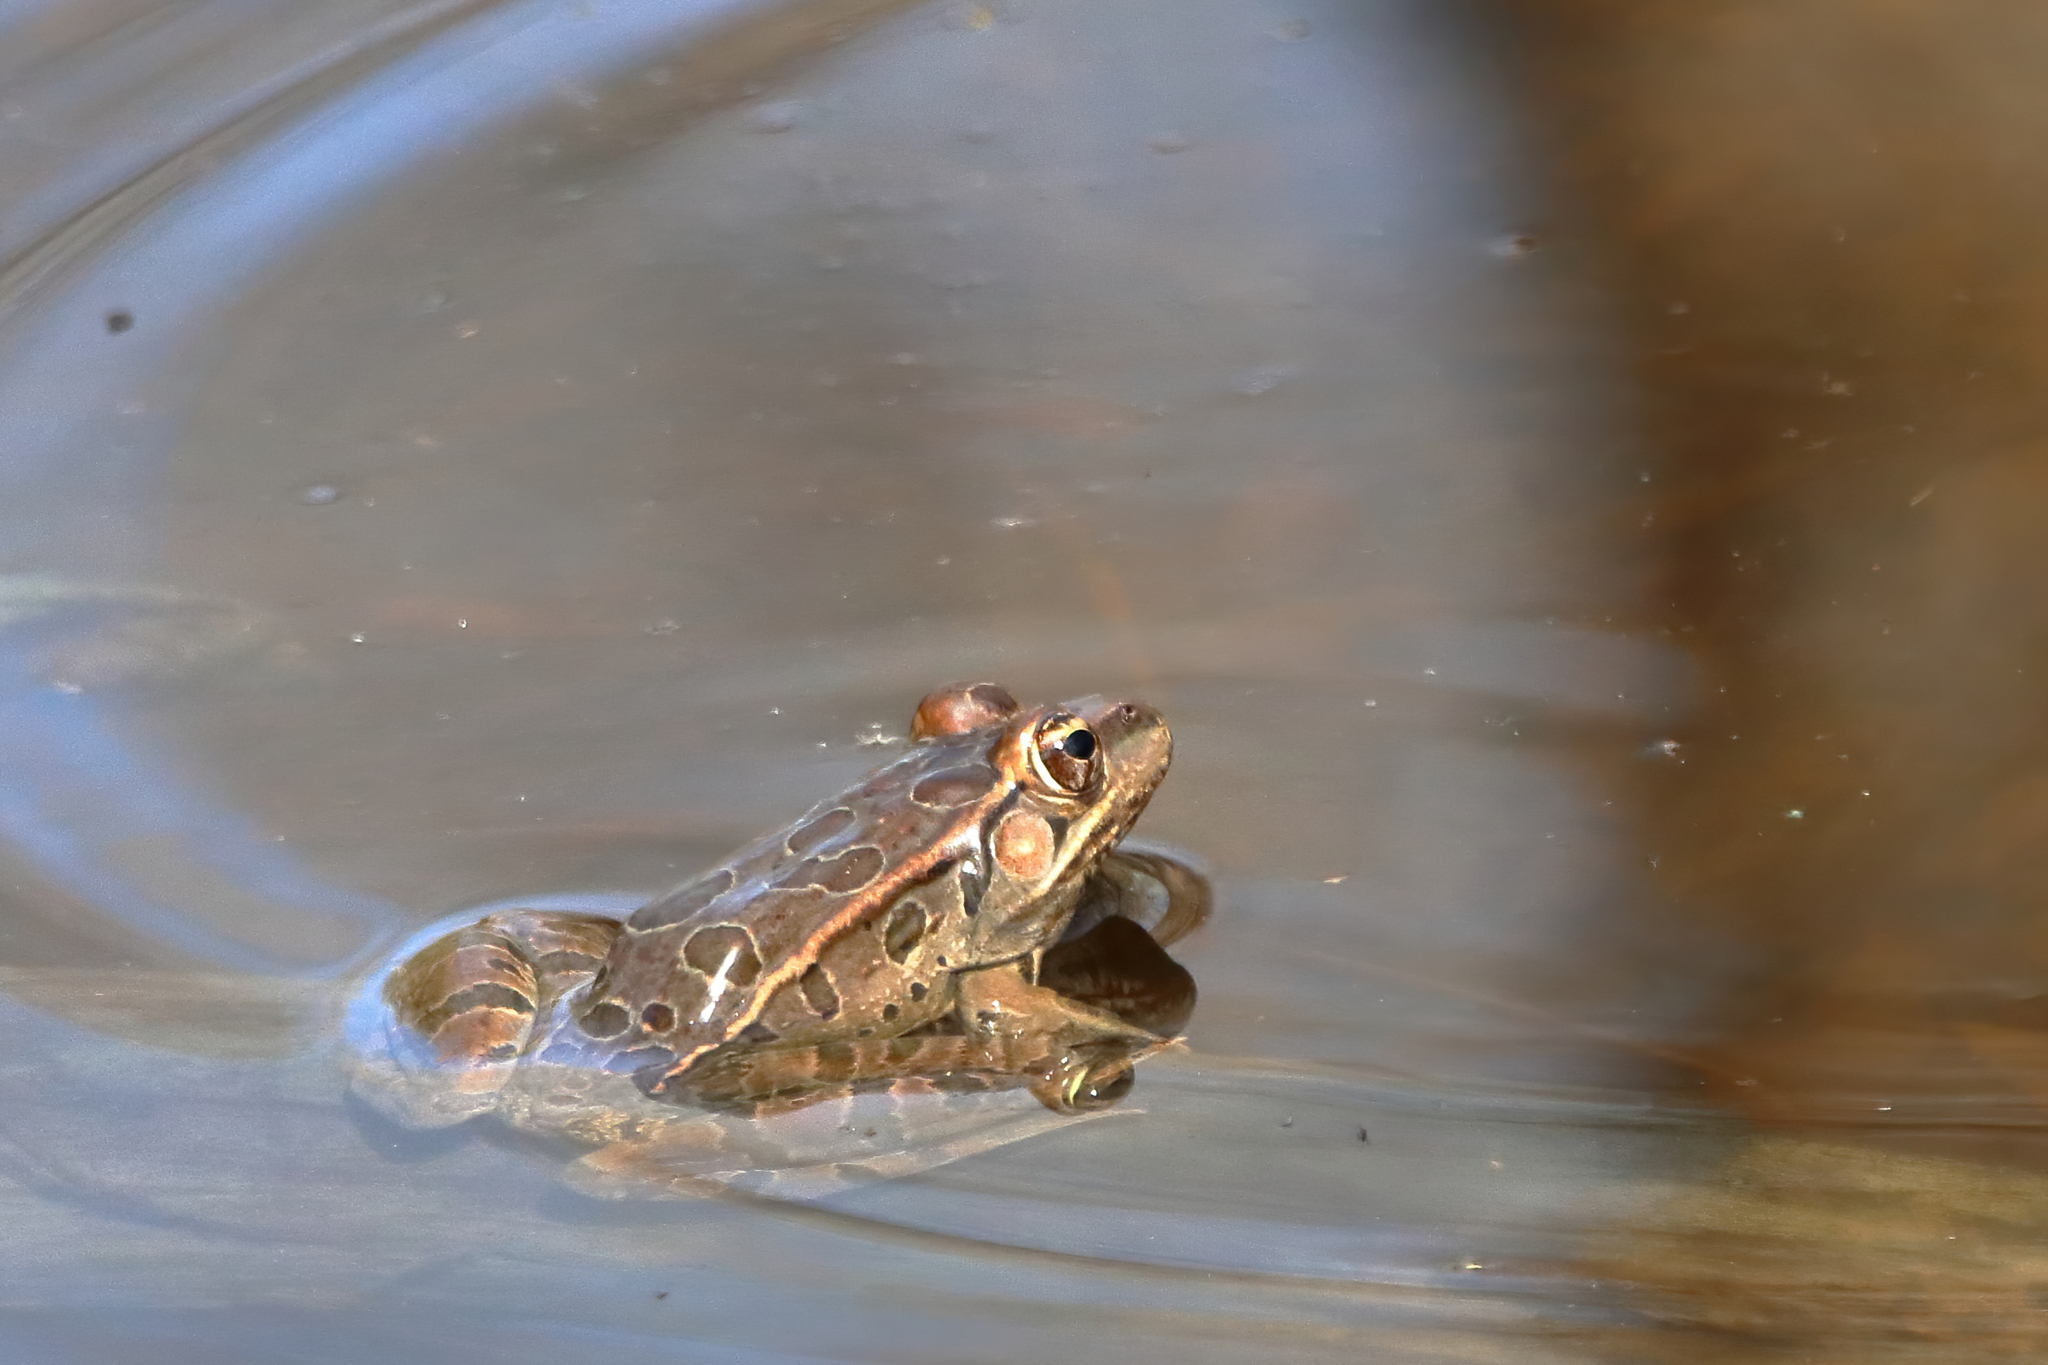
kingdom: Animalia
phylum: Chordata
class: Amphibia
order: Anura
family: Ranidae
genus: Lithobates
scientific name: Lithobates berlandieri
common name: Rio grande leopard frog
